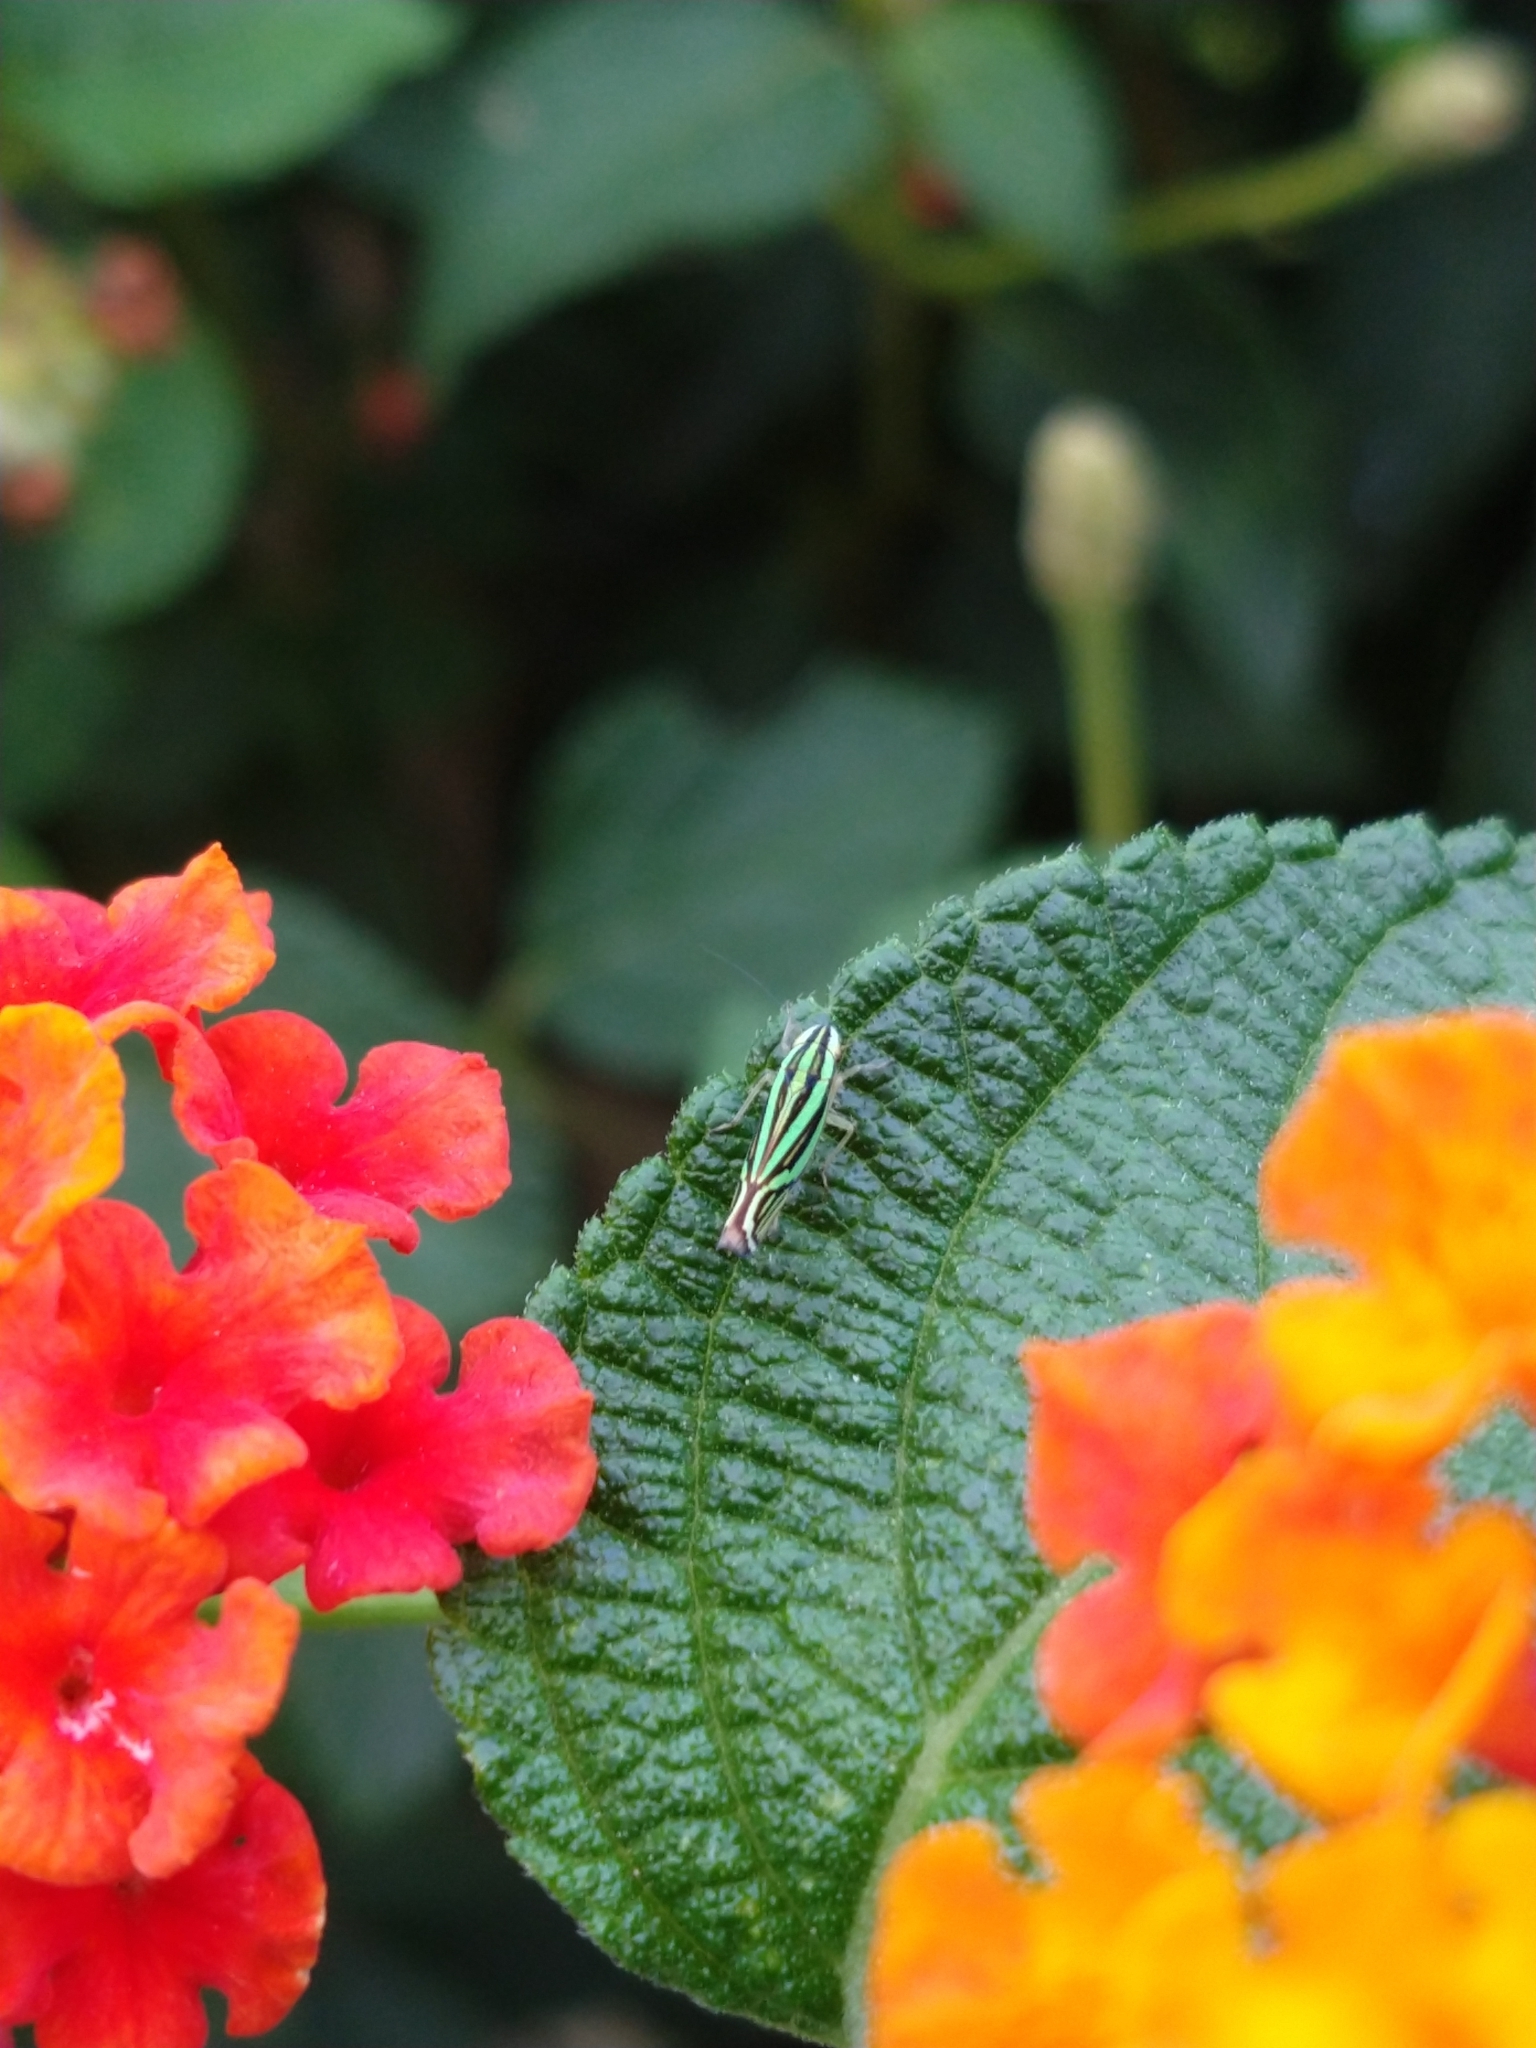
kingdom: Animalia
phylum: Arthropoda
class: Insecta
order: Hemiptera
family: Cicadellidae
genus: Sibovia
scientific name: Sibovia sagata
